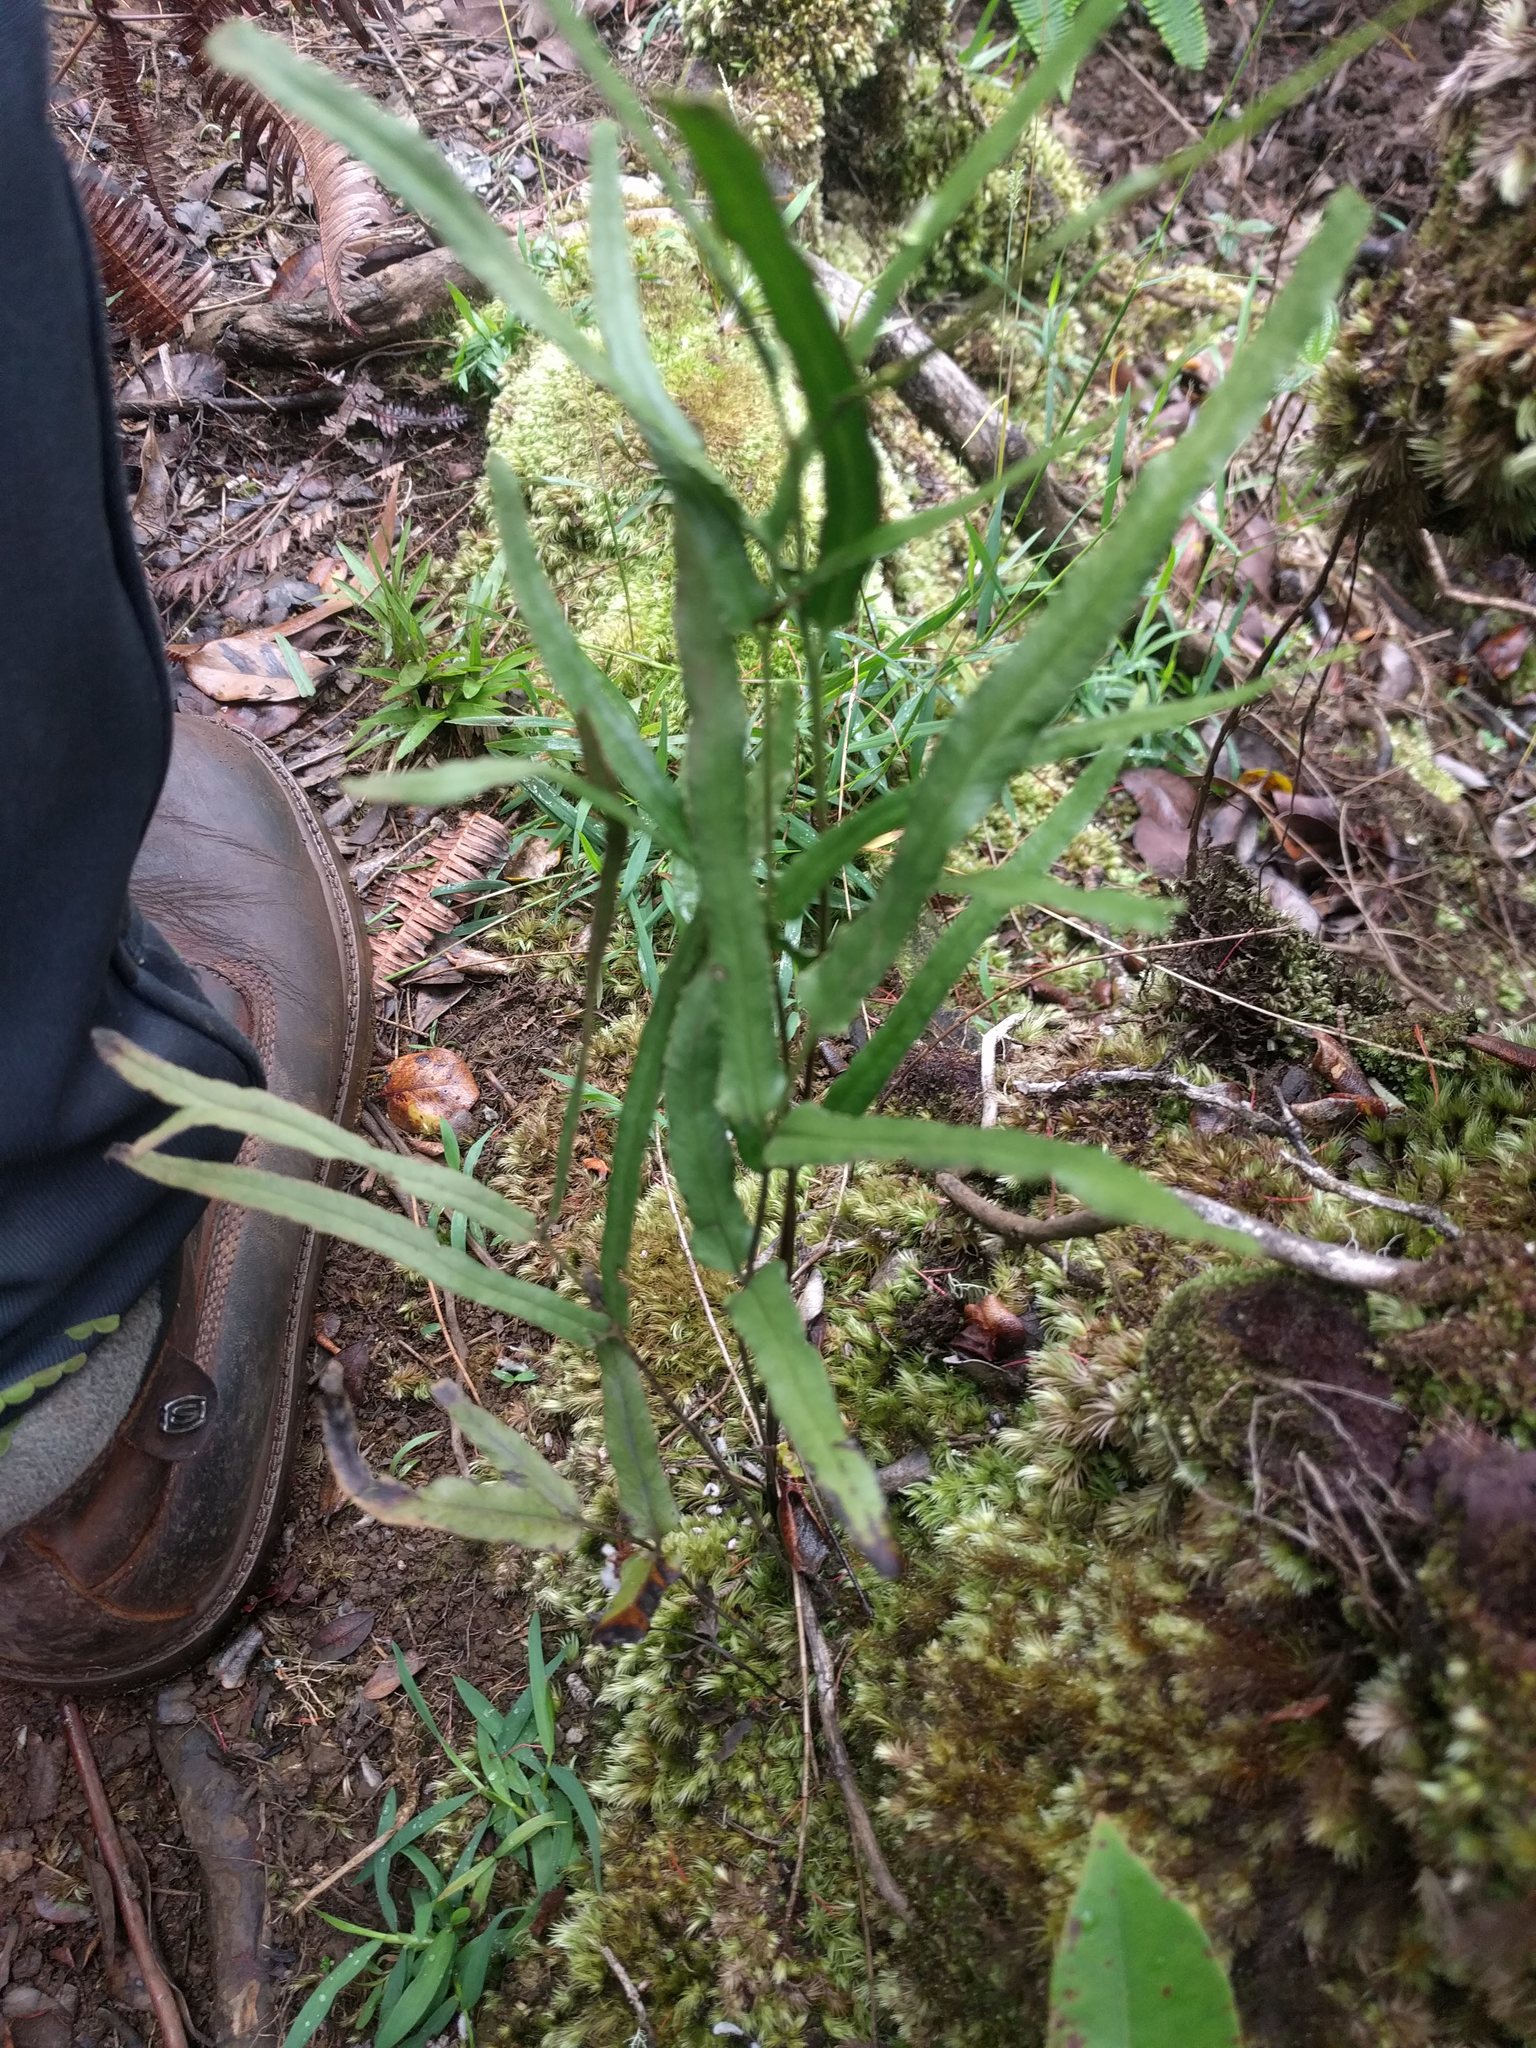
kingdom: Plantae
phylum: Tracheophyta
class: Polypodiopsida
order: Polypodiales
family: Lindsaeaceae
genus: Lindsaea
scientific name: Lindsaea ensifolia
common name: Graceful necklace fern
